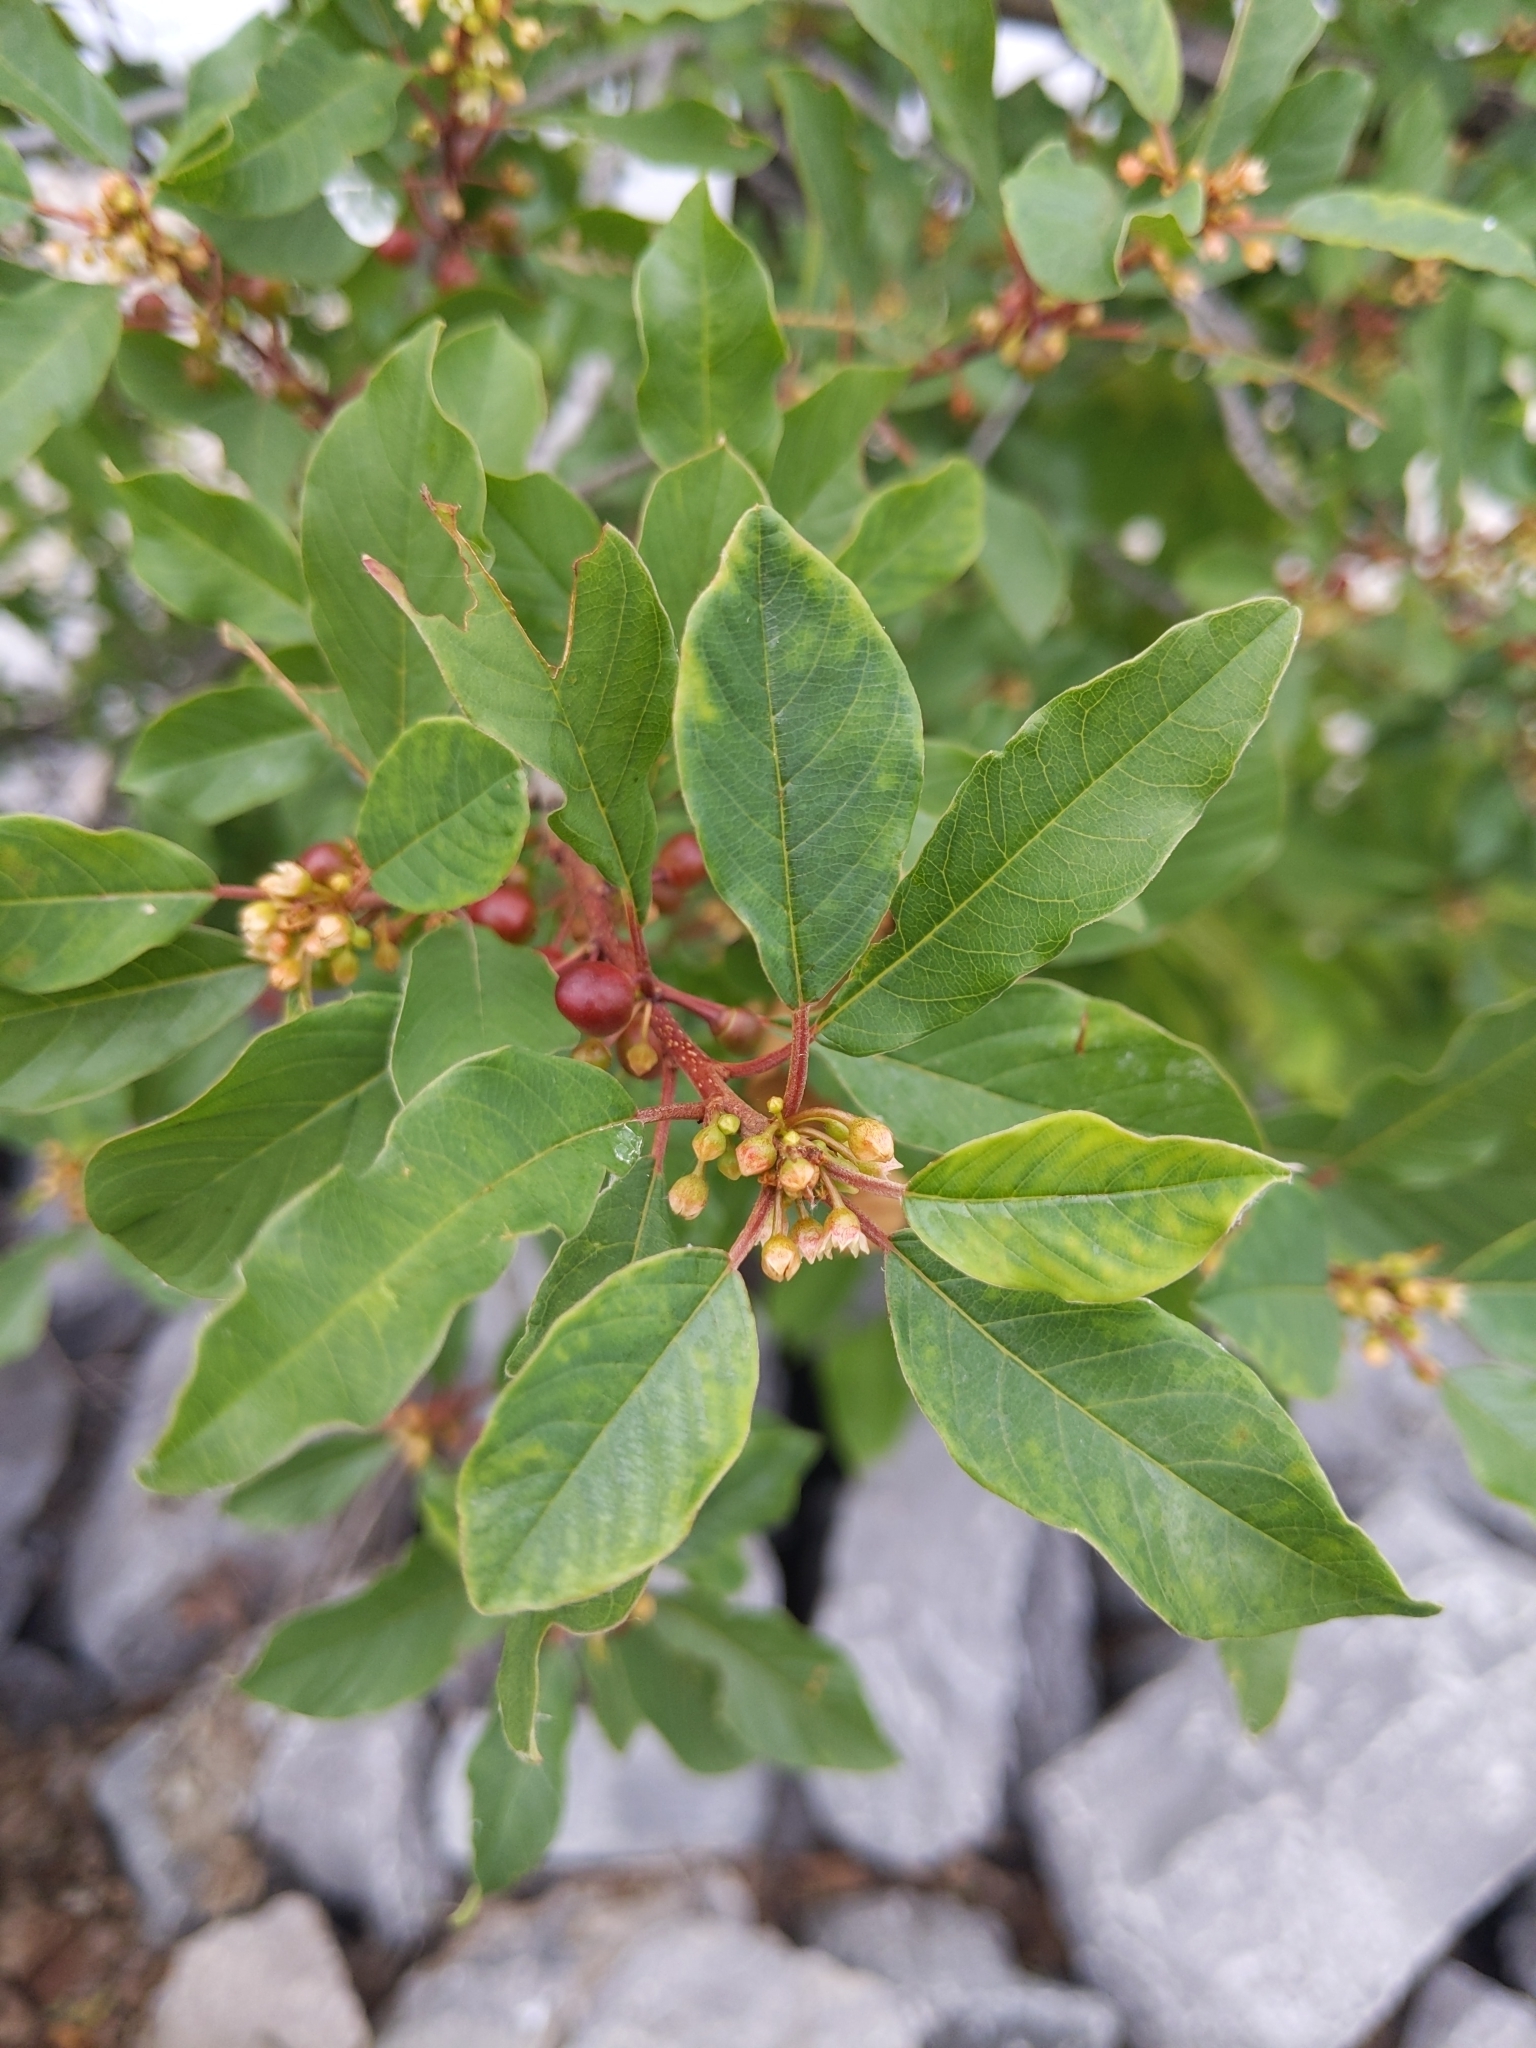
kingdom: Plantae
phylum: Tracheophyta
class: Magnoliopsida
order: Rosales
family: Rhamnaceae
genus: Frangula
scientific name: Frangula alnus
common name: Alder buckthorn
